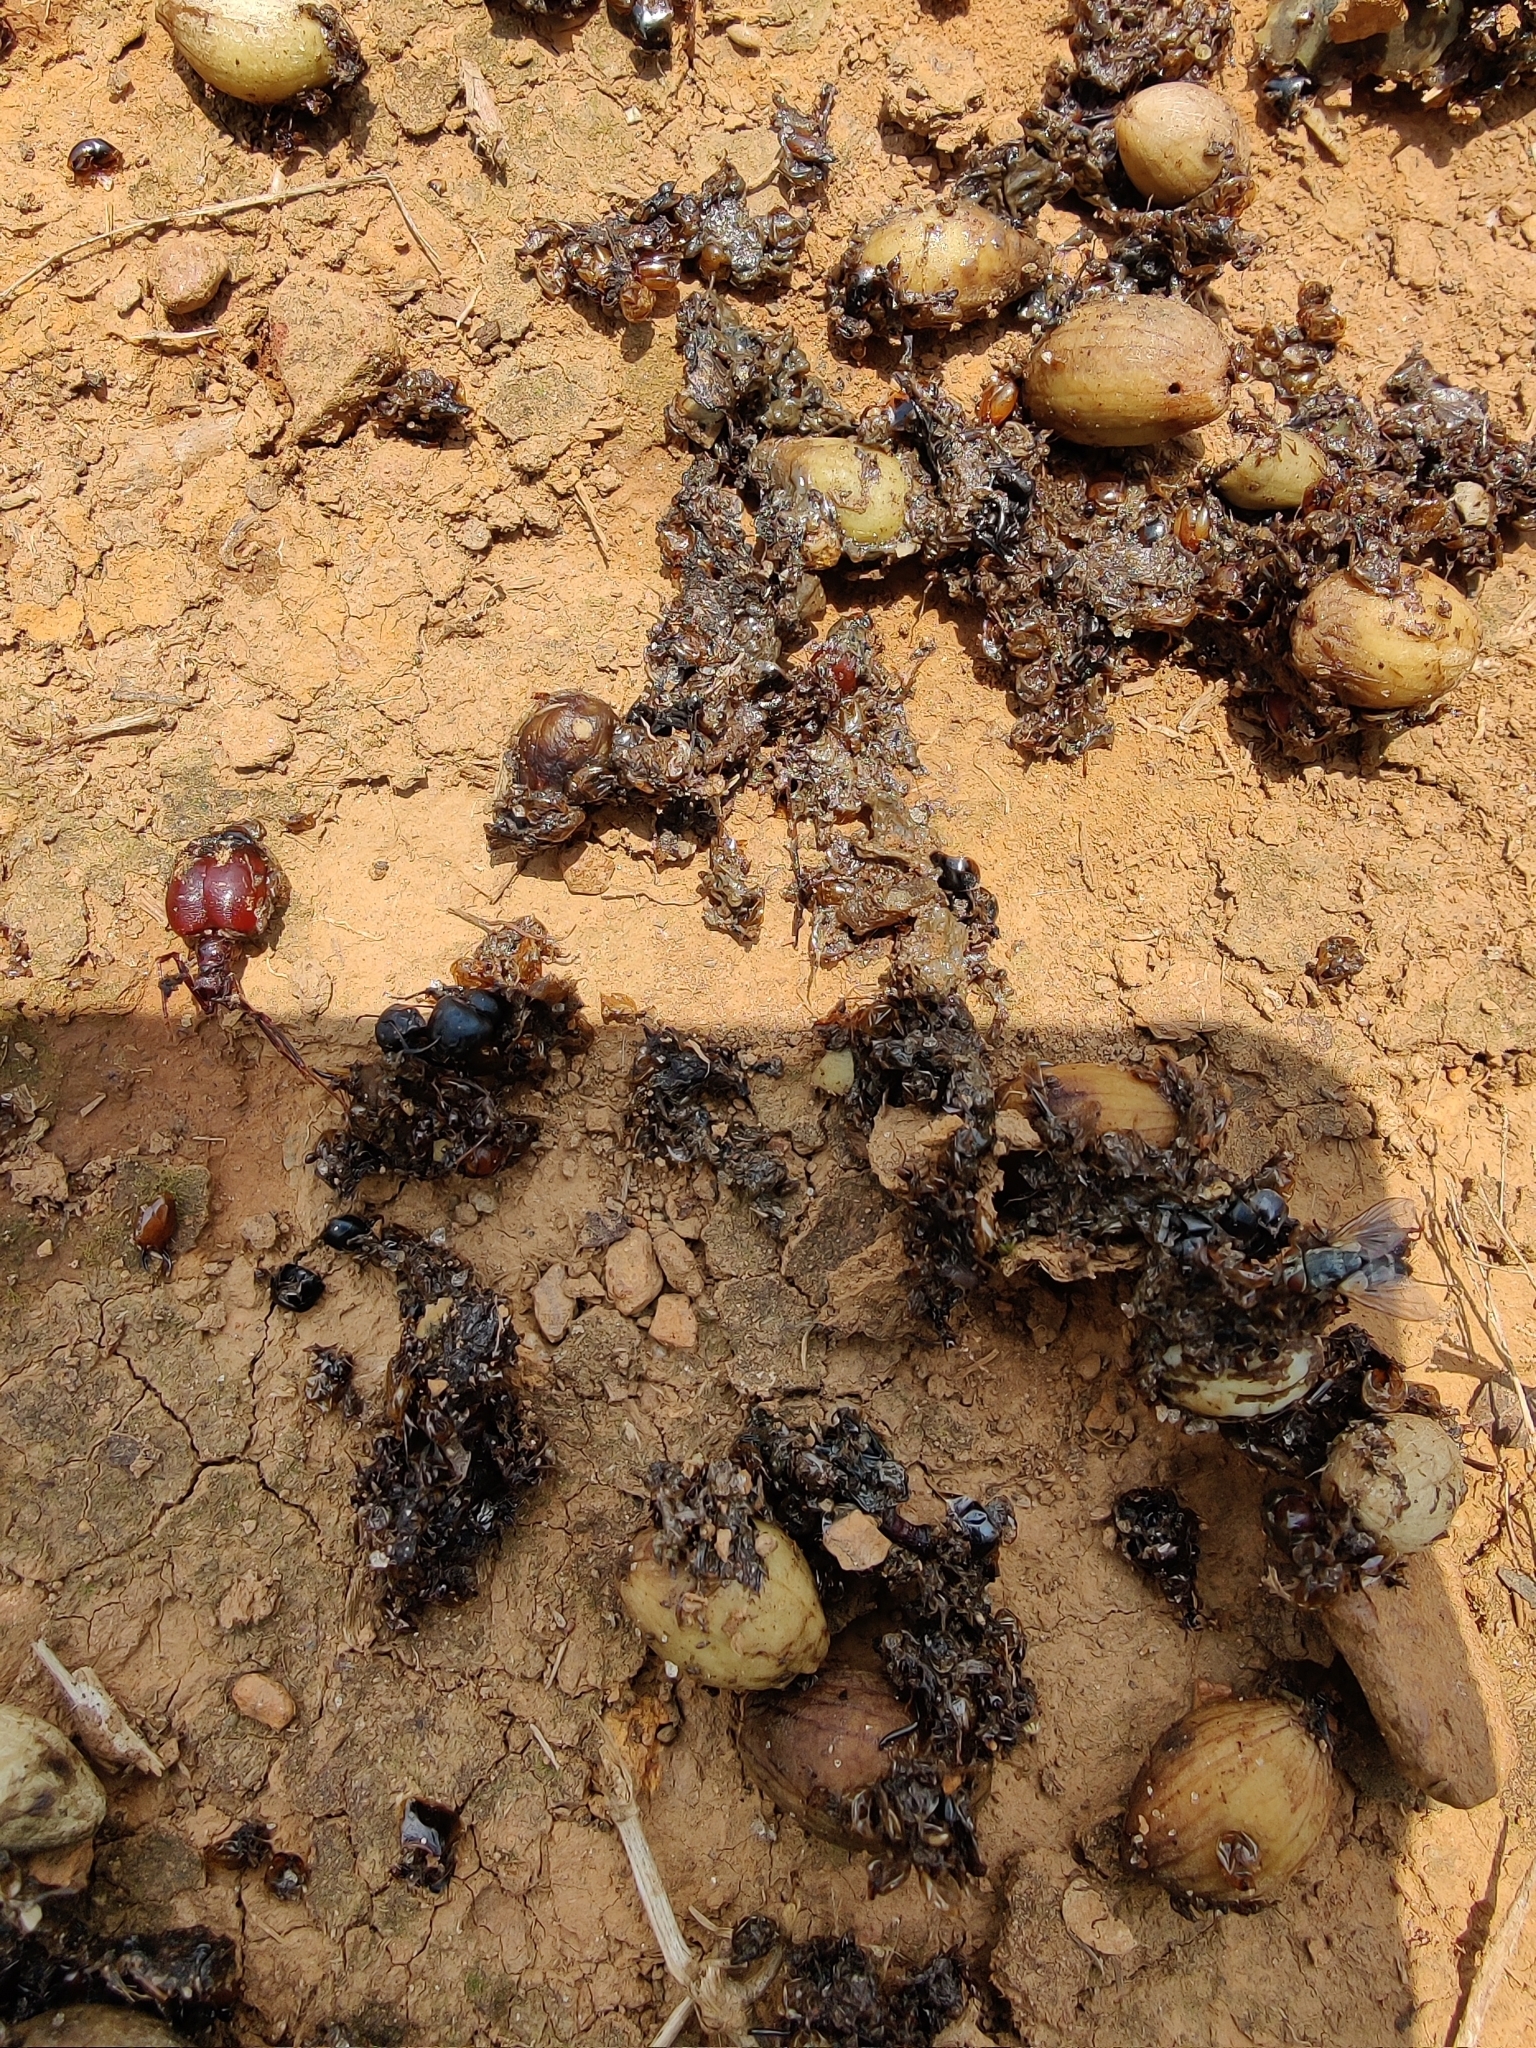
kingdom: Animalia
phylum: Chordata
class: Mammalia
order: Carnivora
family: Ursidae
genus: Melursus
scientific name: Melursus ursinus
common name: Sloth bear
